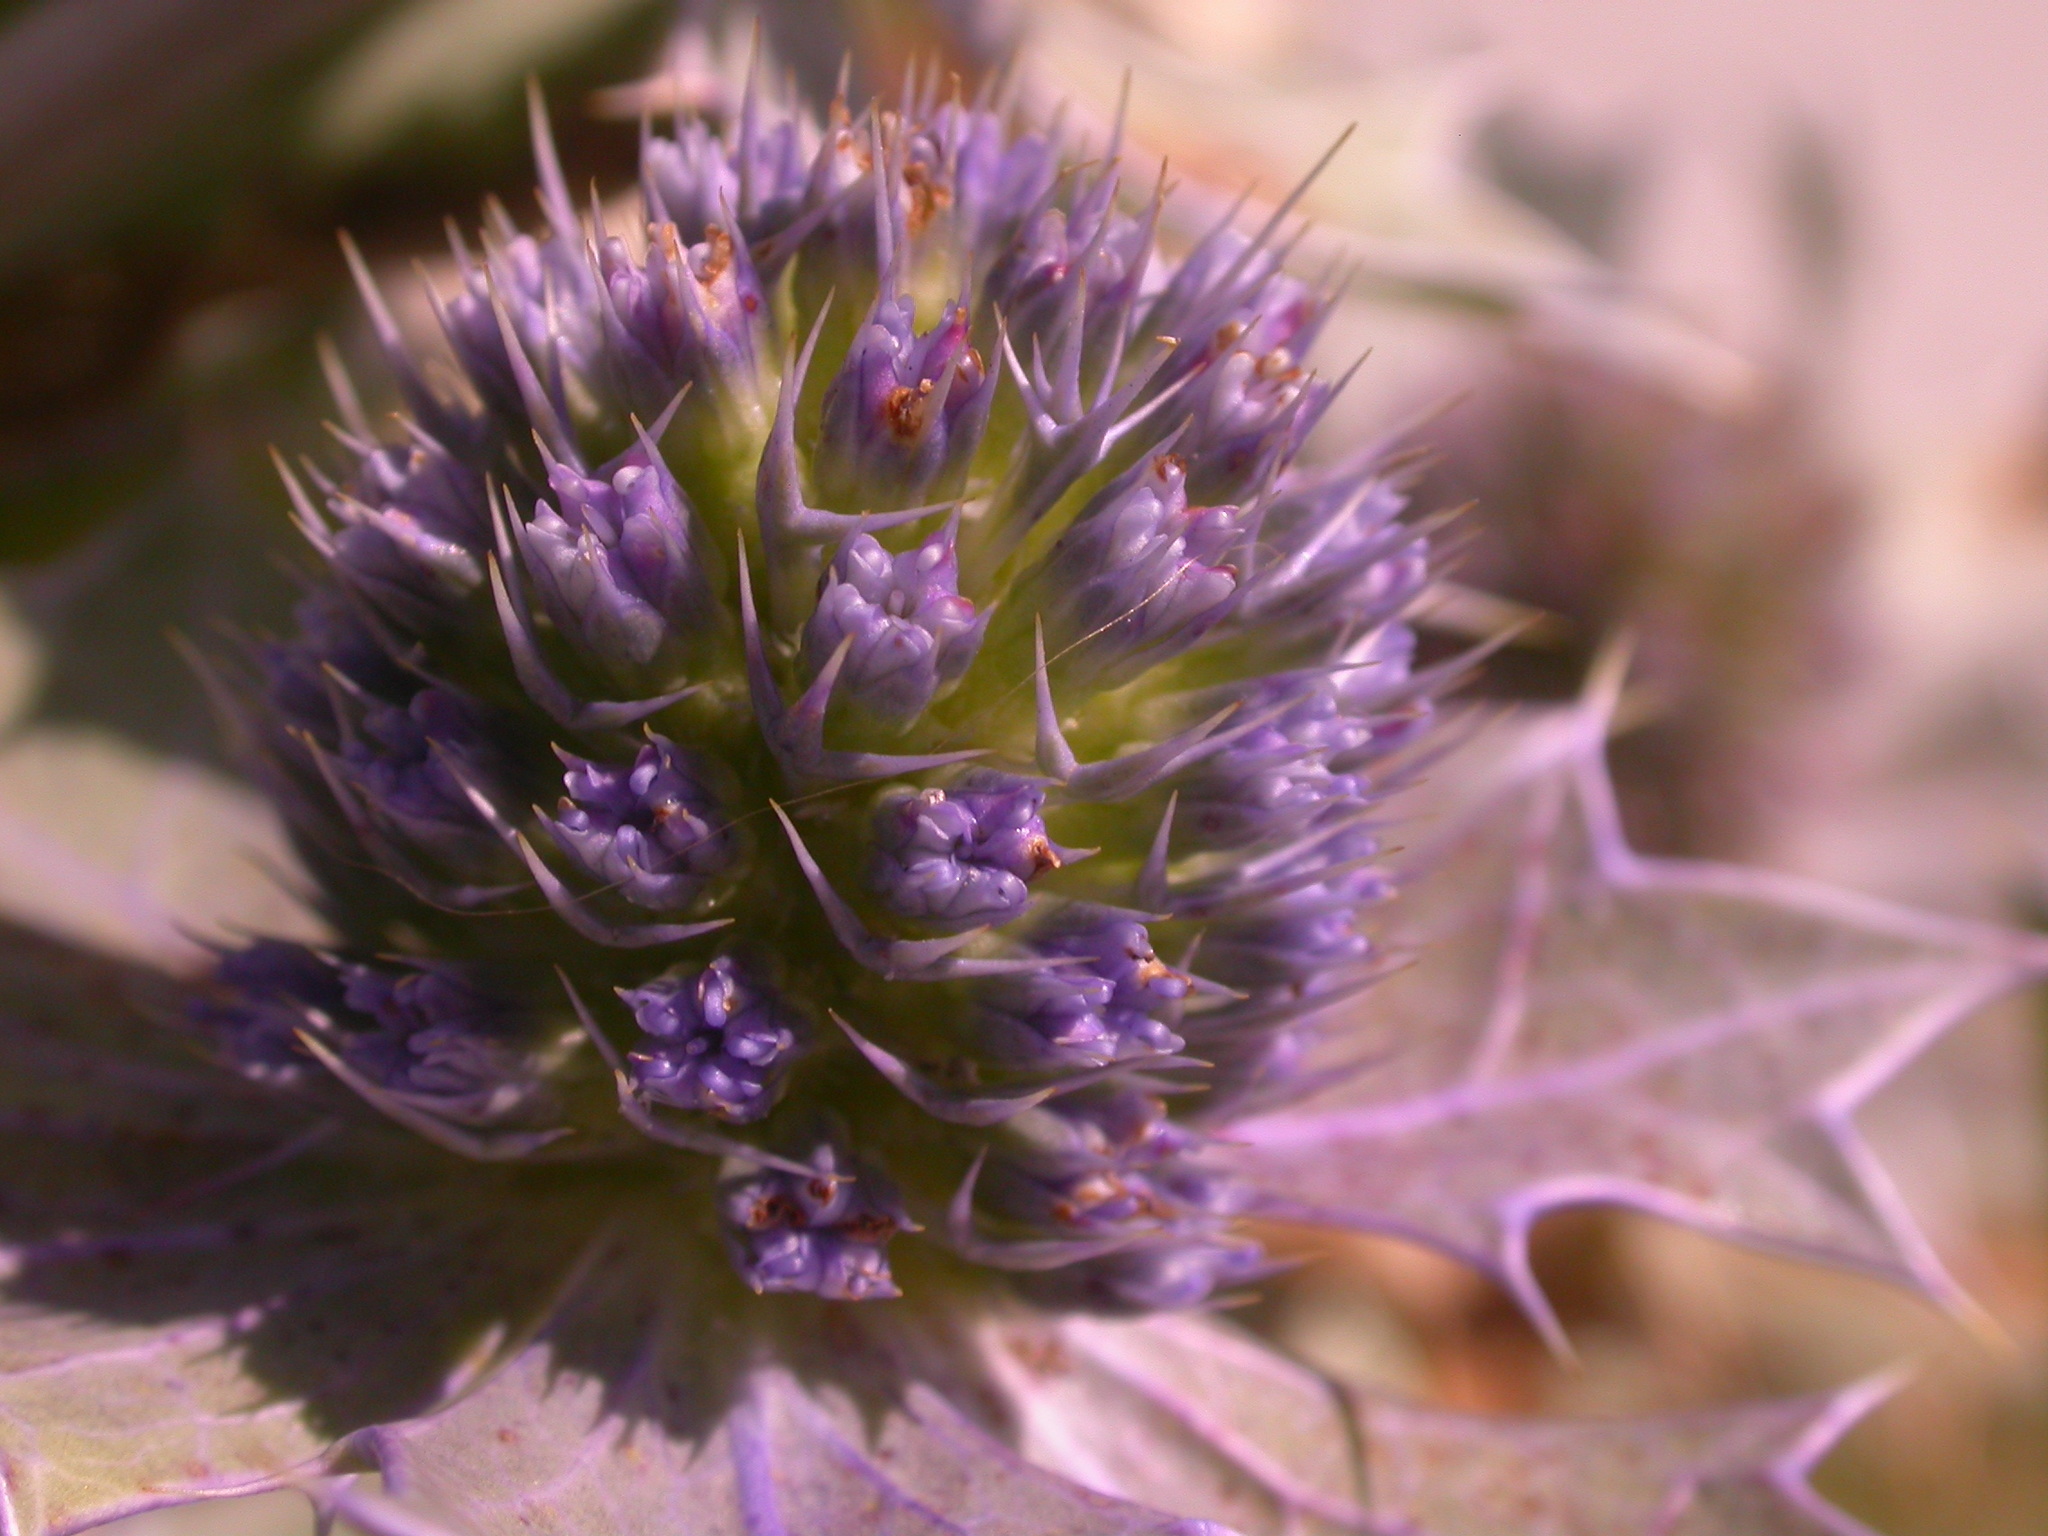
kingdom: Plantae
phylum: Tracheophyta
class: Magnoliopsida
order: Apiales
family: Apiaceae
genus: Eryngium
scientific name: Eryngium maritimum
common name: Sea-holly
